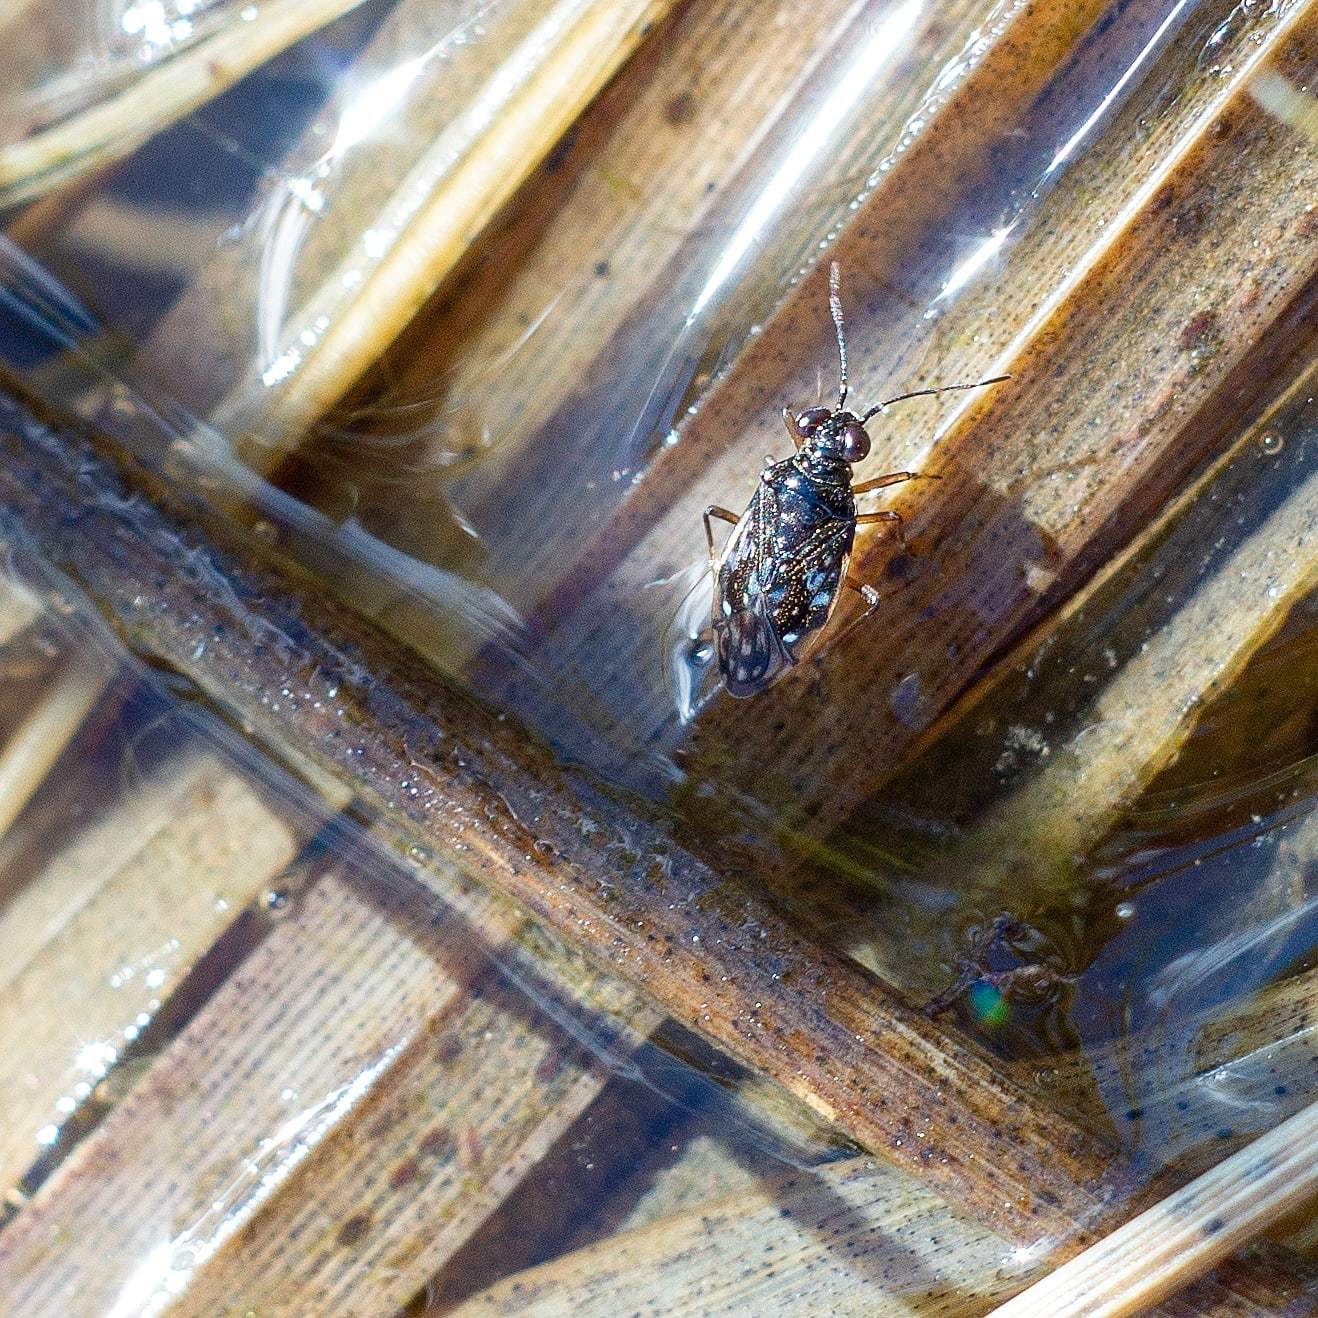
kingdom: Animalia
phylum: Arthropoda
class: Insecta
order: Hemiptera
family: Saldidae
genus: Chartoscirta
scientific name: Chartoscirta cincta
